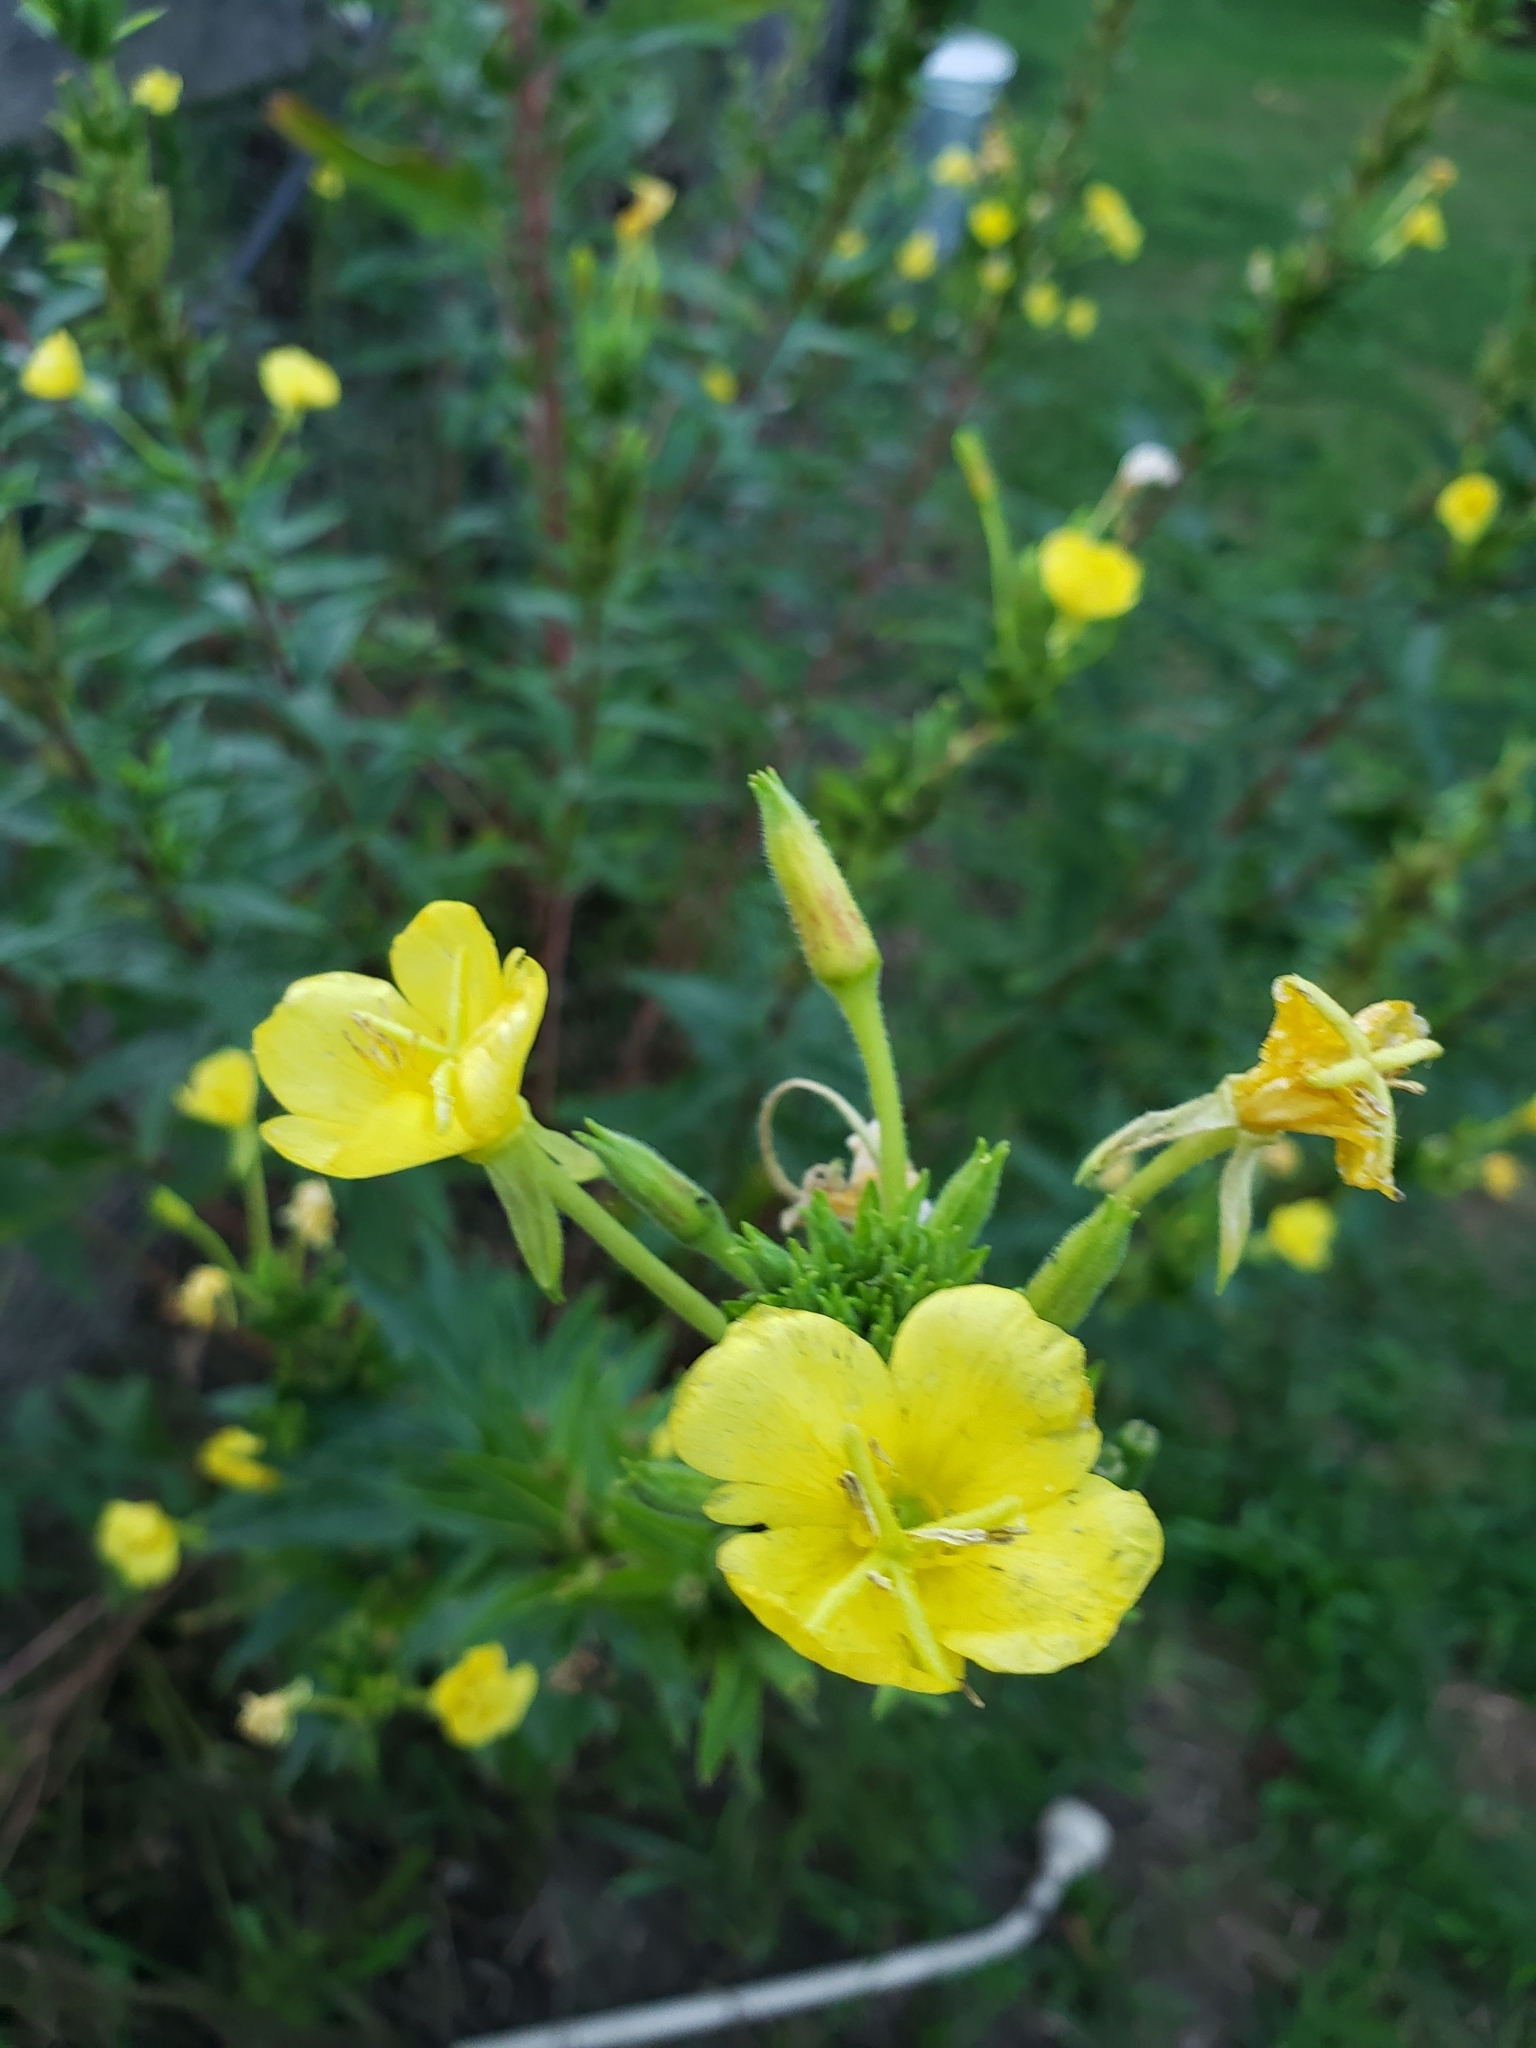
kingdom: Plantae
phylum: Tracheophyta
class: Magnoliopsida
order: Myrtales
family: Onagraceae
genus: Oenothera
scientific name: Oenothera biennis
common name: Common evening-primrose
